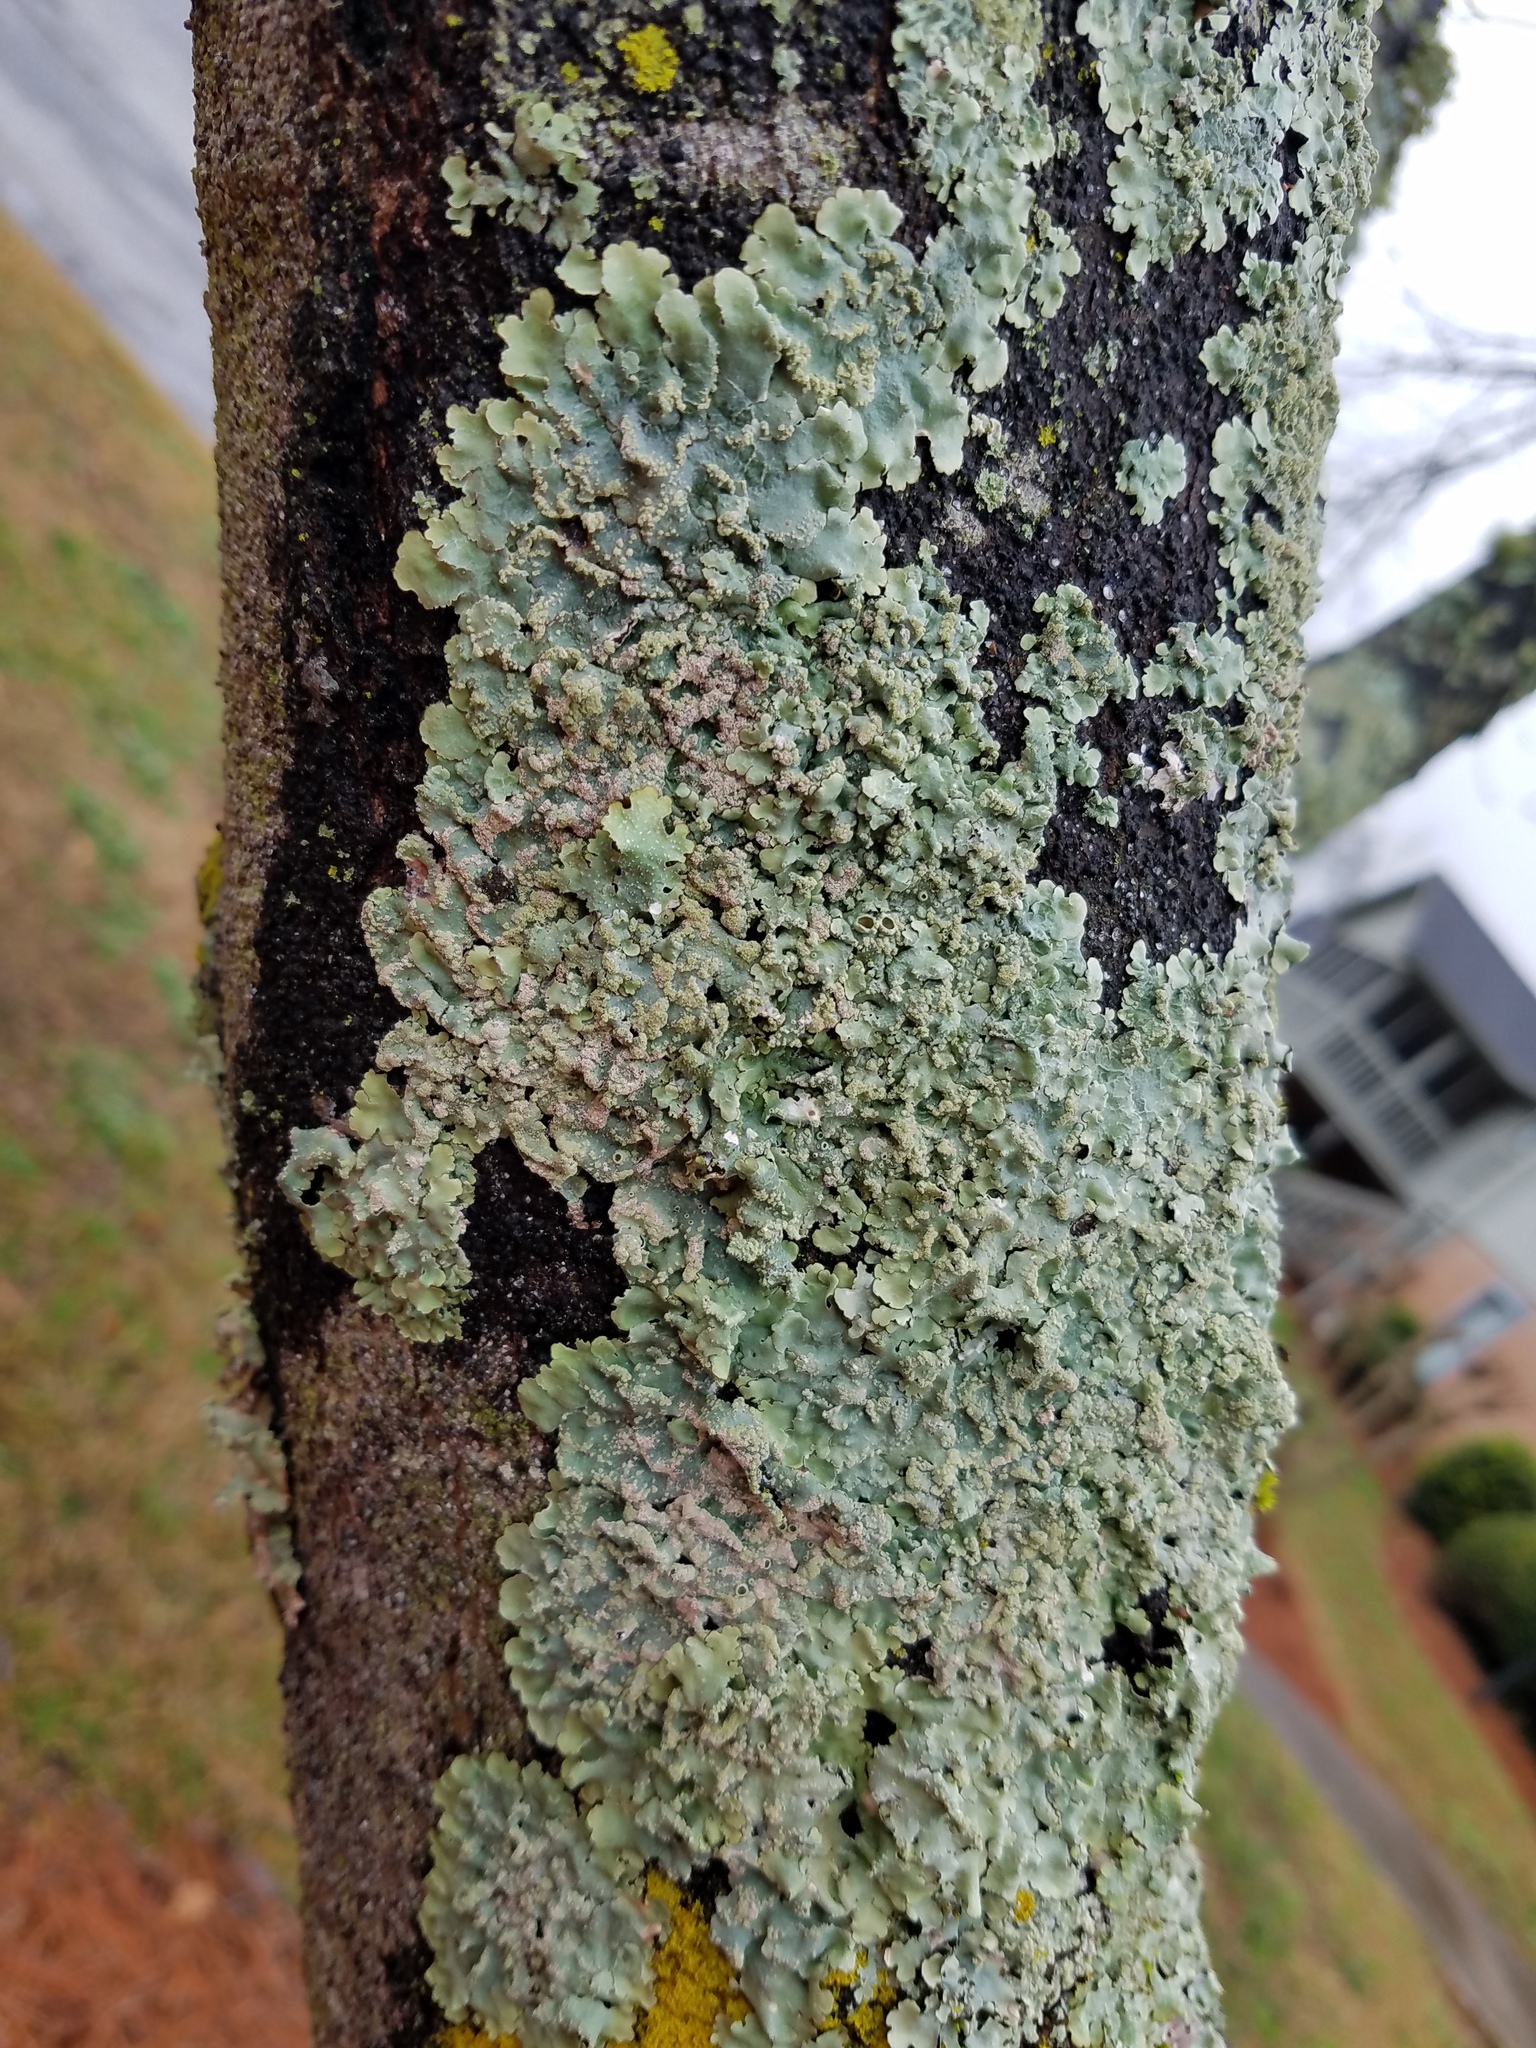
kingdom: Fungi
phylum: Ascomycota
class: Lecanoromycetes
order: Lecanorales
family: Parmeliaceae
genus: Crespoa
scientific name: Crespoa crozalsiana
